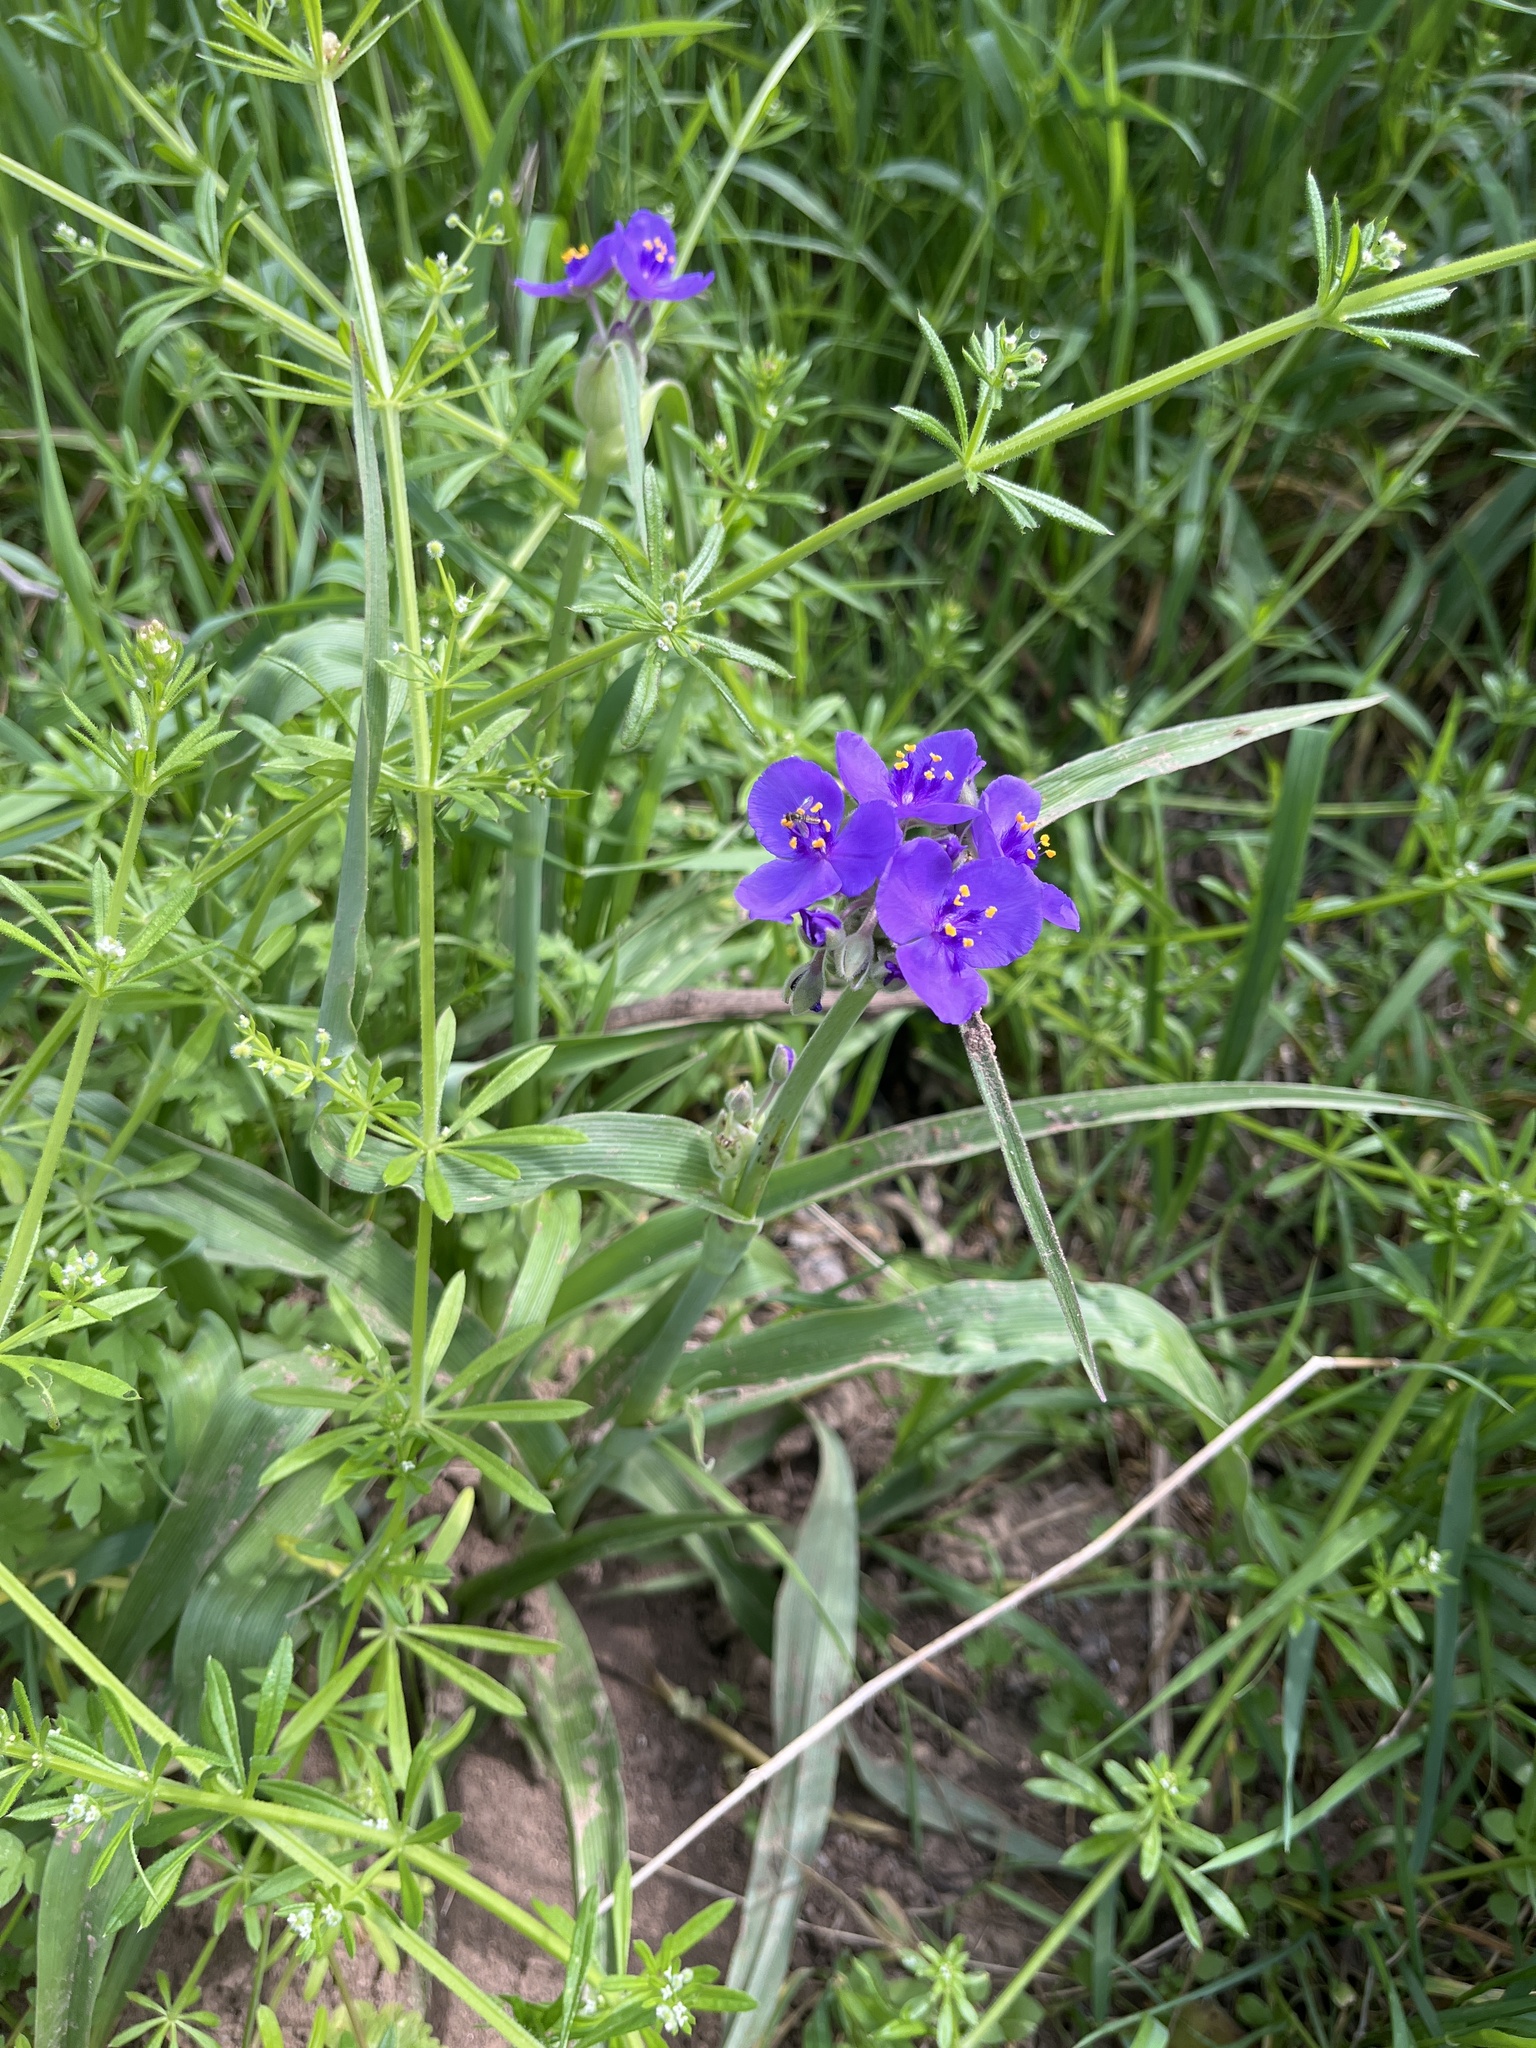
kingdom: Plantae
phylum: Tracheophyta
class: Liliopsida
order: Commelinales
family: Commelinaceae
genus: Tradescantia
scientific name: Tradescantia gigantea
